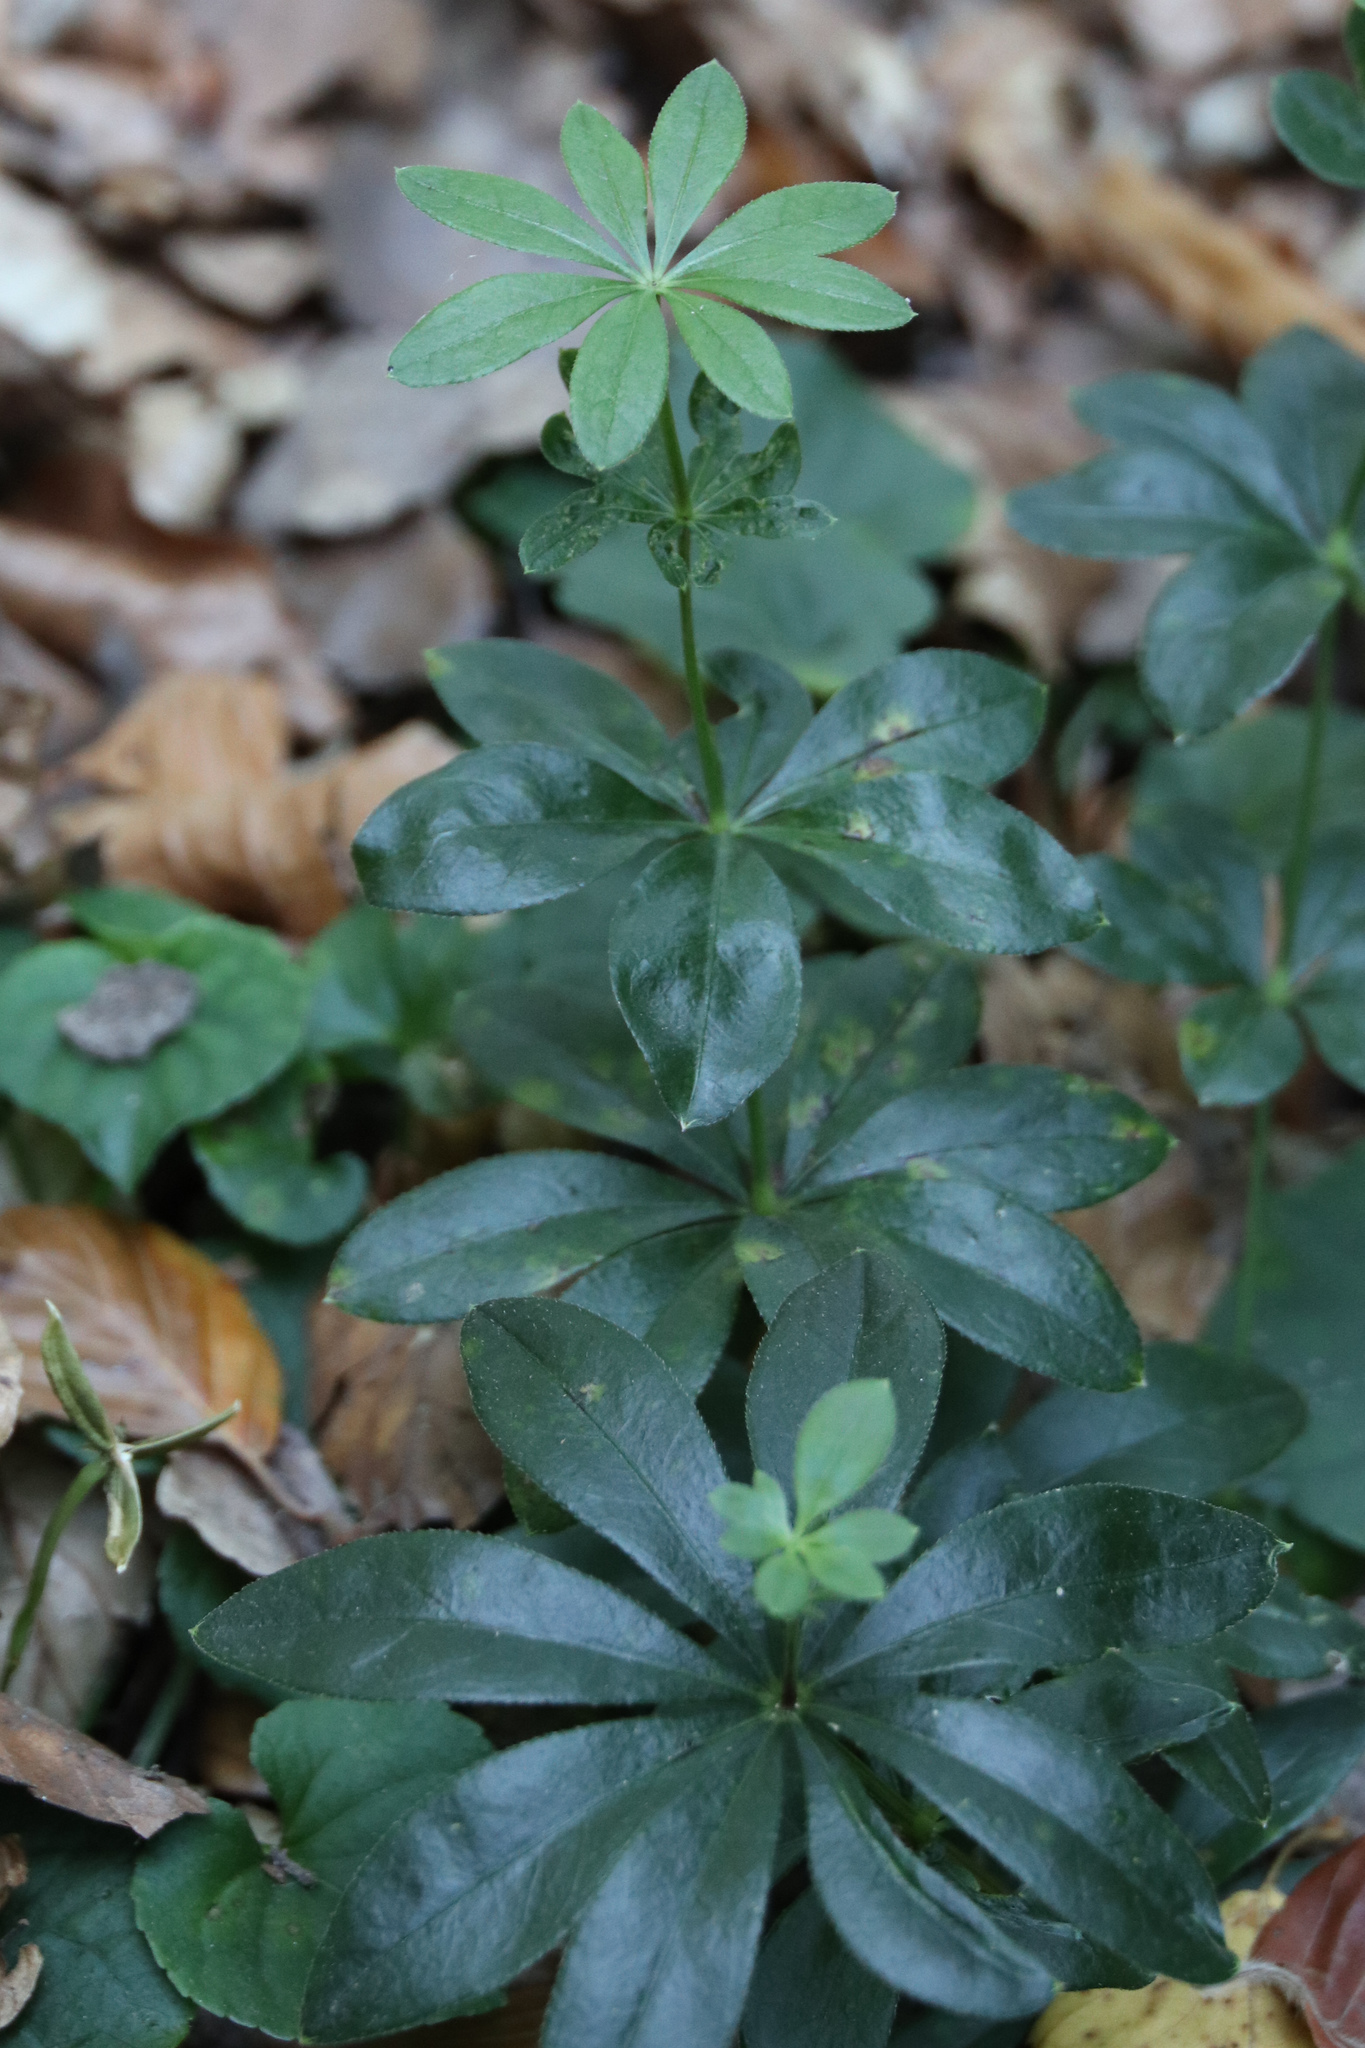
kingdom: Plantae
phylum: Tracheophyta
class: Magnoliopsida
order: Gentianales
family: Rubiaceae
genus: Galium
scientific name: Galium odoratum
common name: Sweet woodruff
